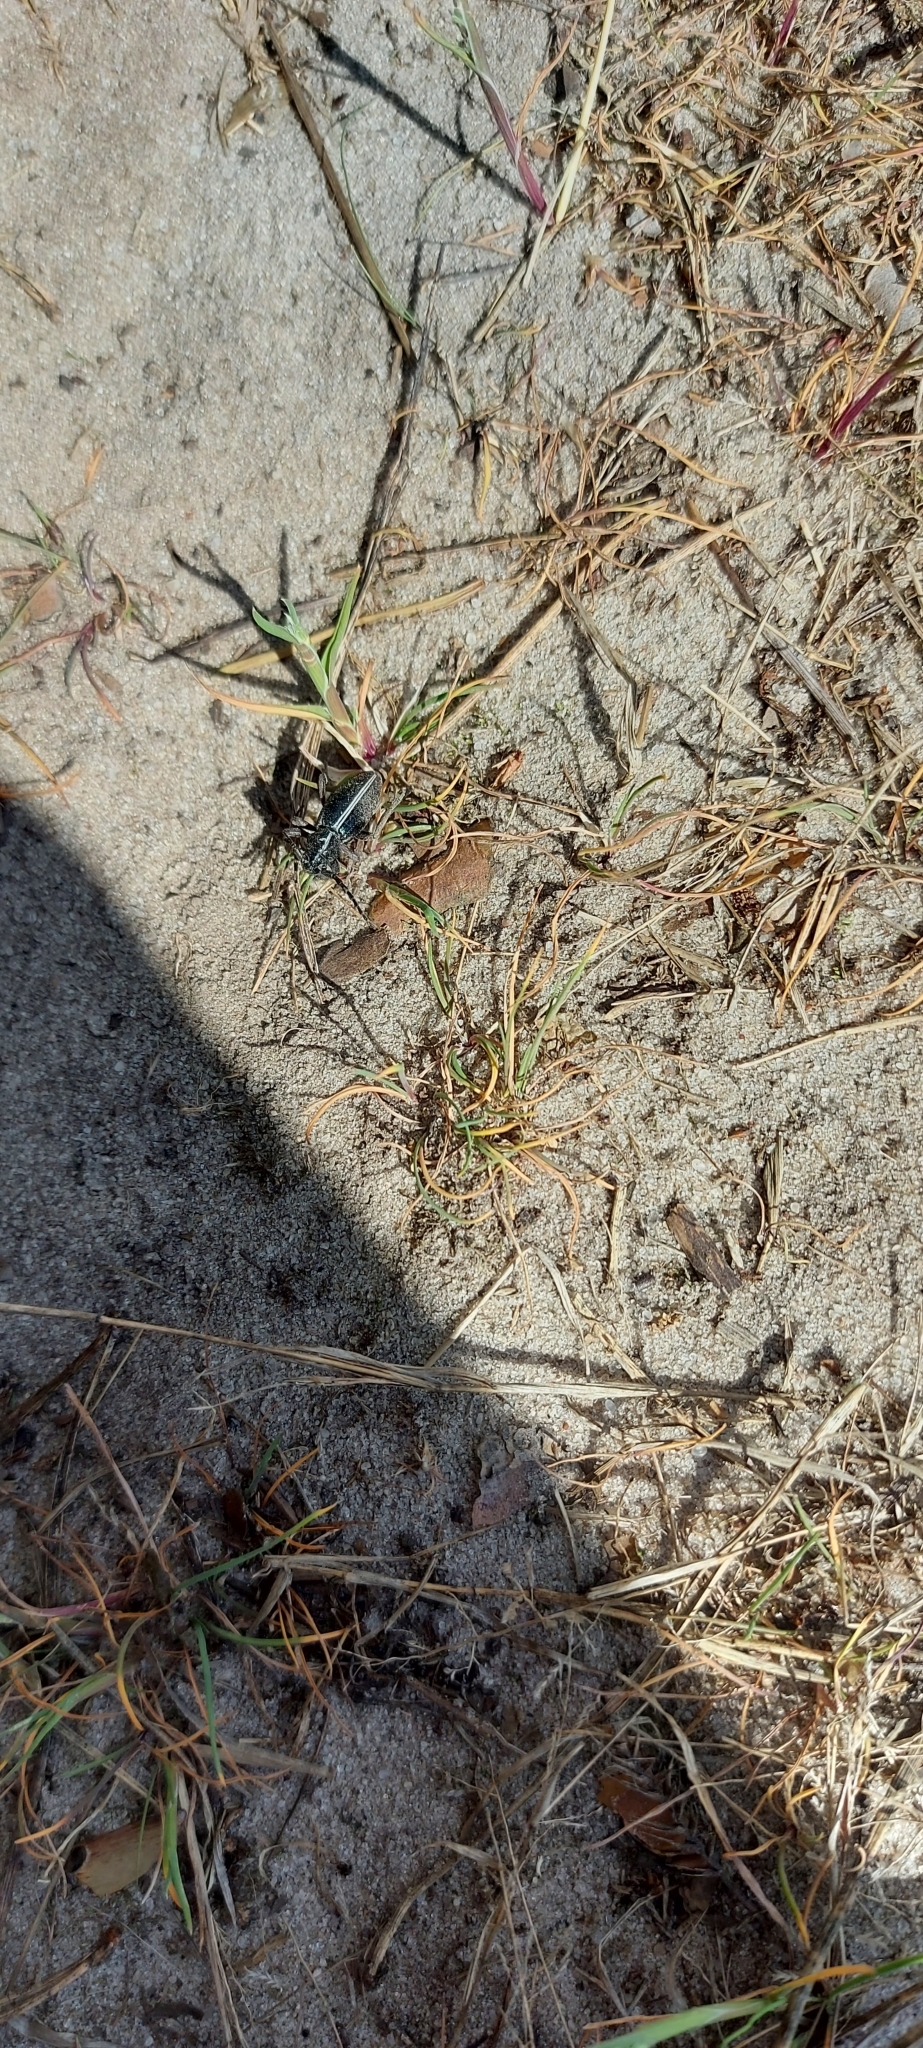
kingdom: Animalia
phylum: Arthropoda
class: Insecta
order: Coleoptera
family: Cerambycidae
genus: Dorcadion
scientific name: Dorcadion holosericeum
